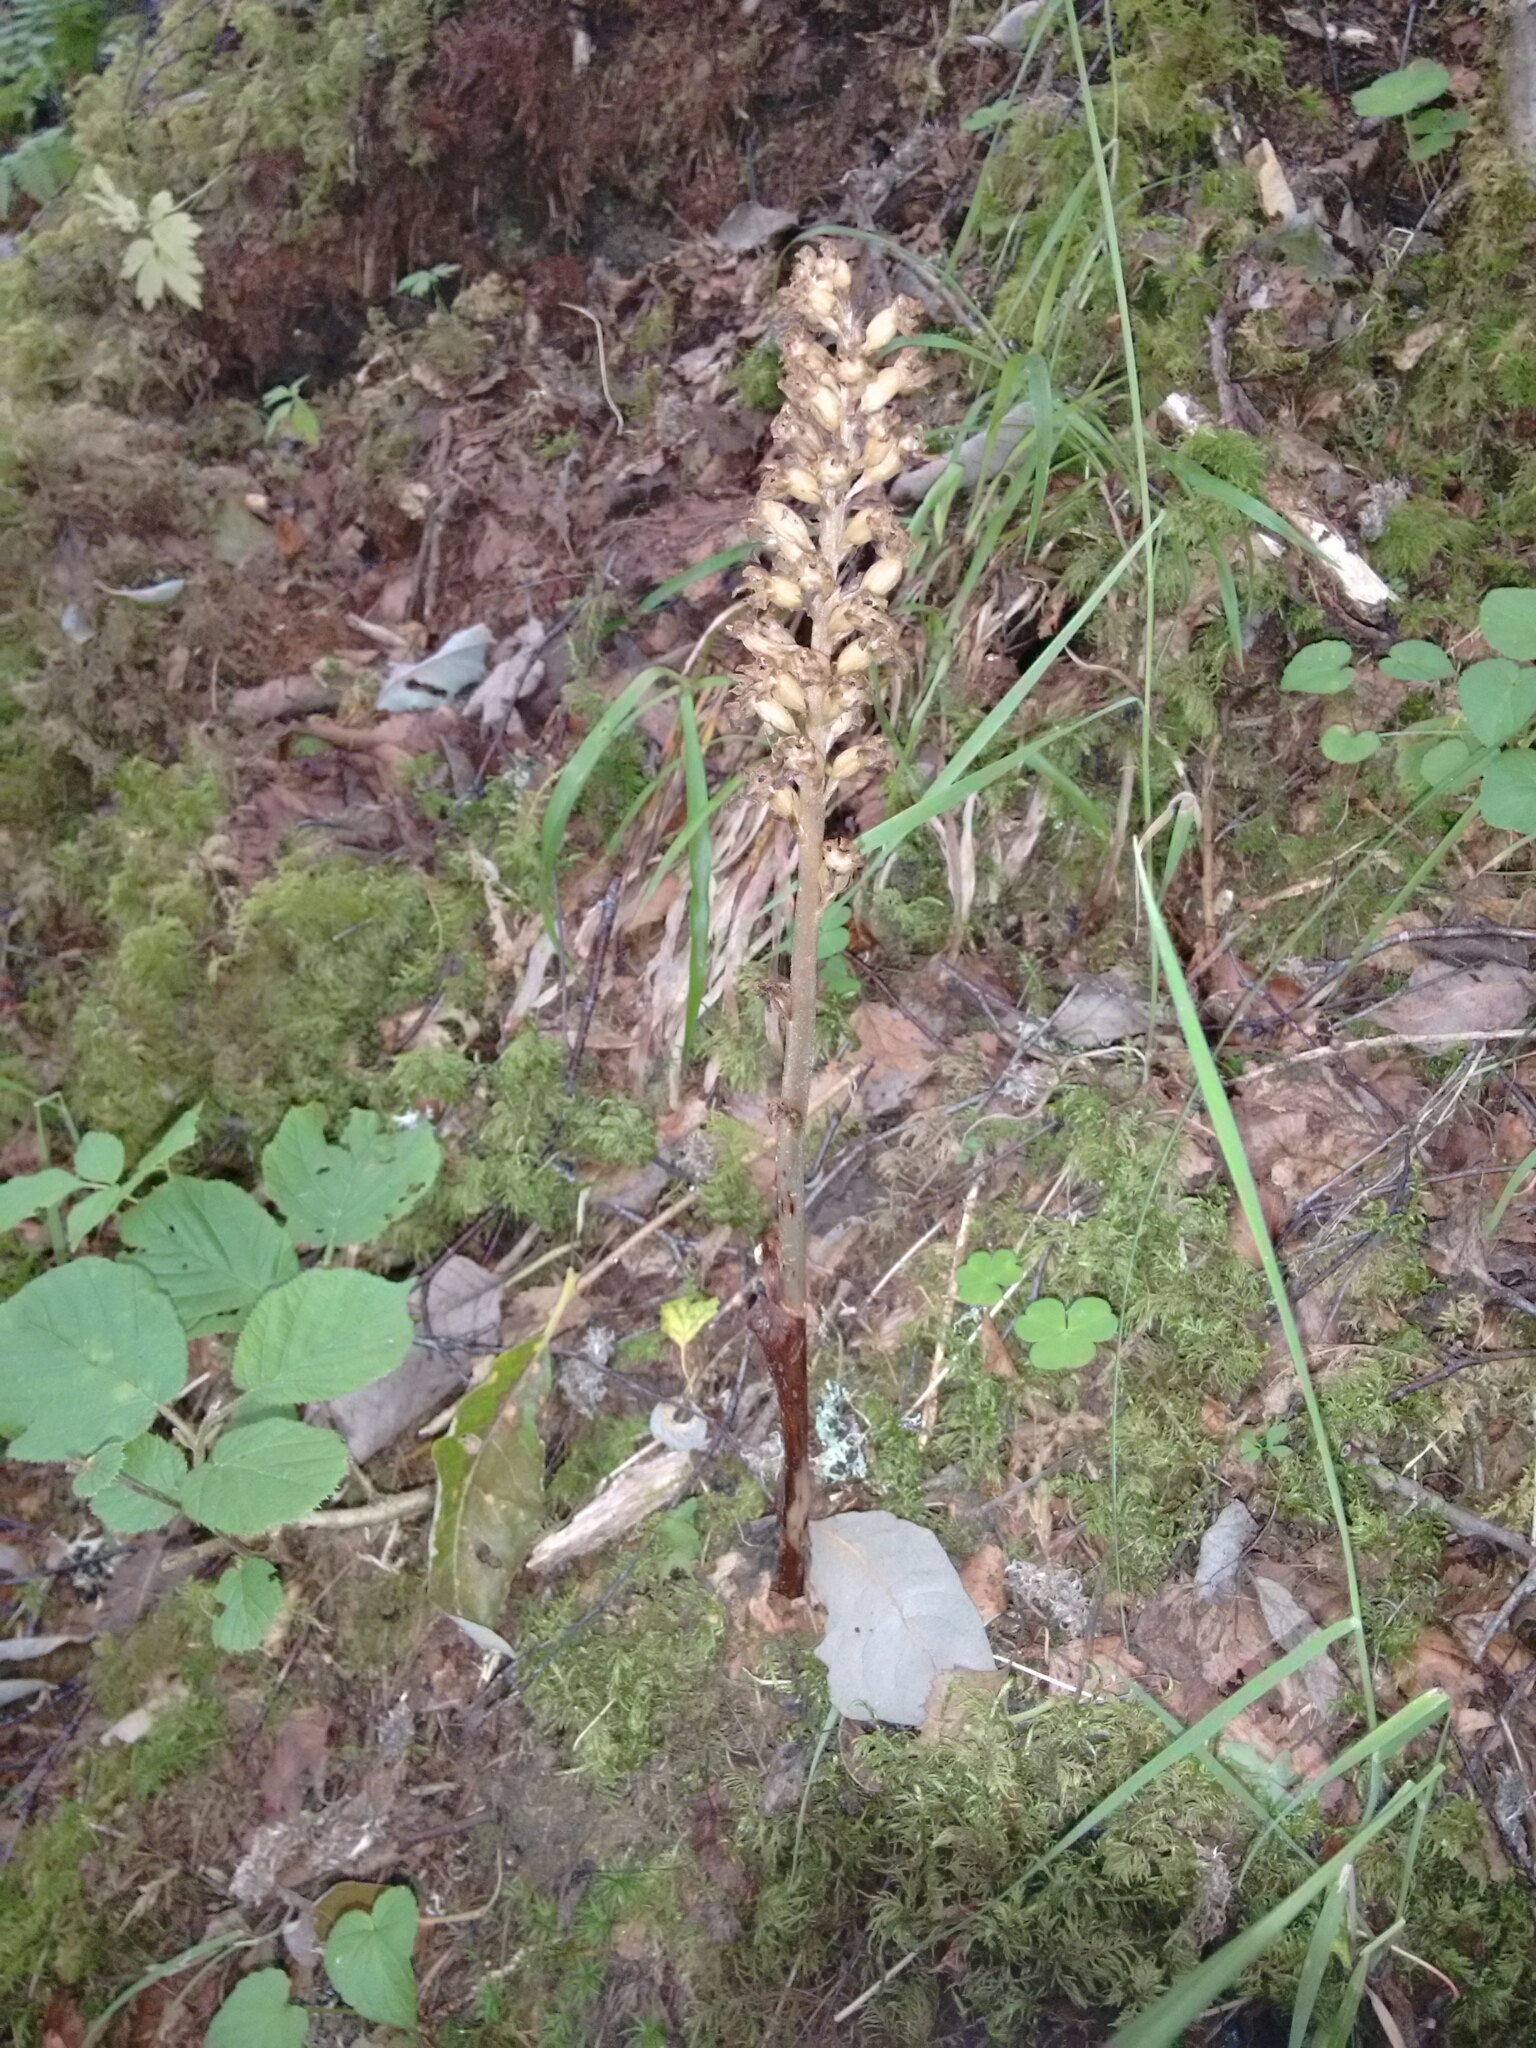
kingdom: Plantae
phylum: Tracheophyta
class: Liliopsida
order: Asparagales
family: Orchidaceae
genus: Neottia
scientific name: Neottia nidus-avis
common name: Bird's-nest orchid
